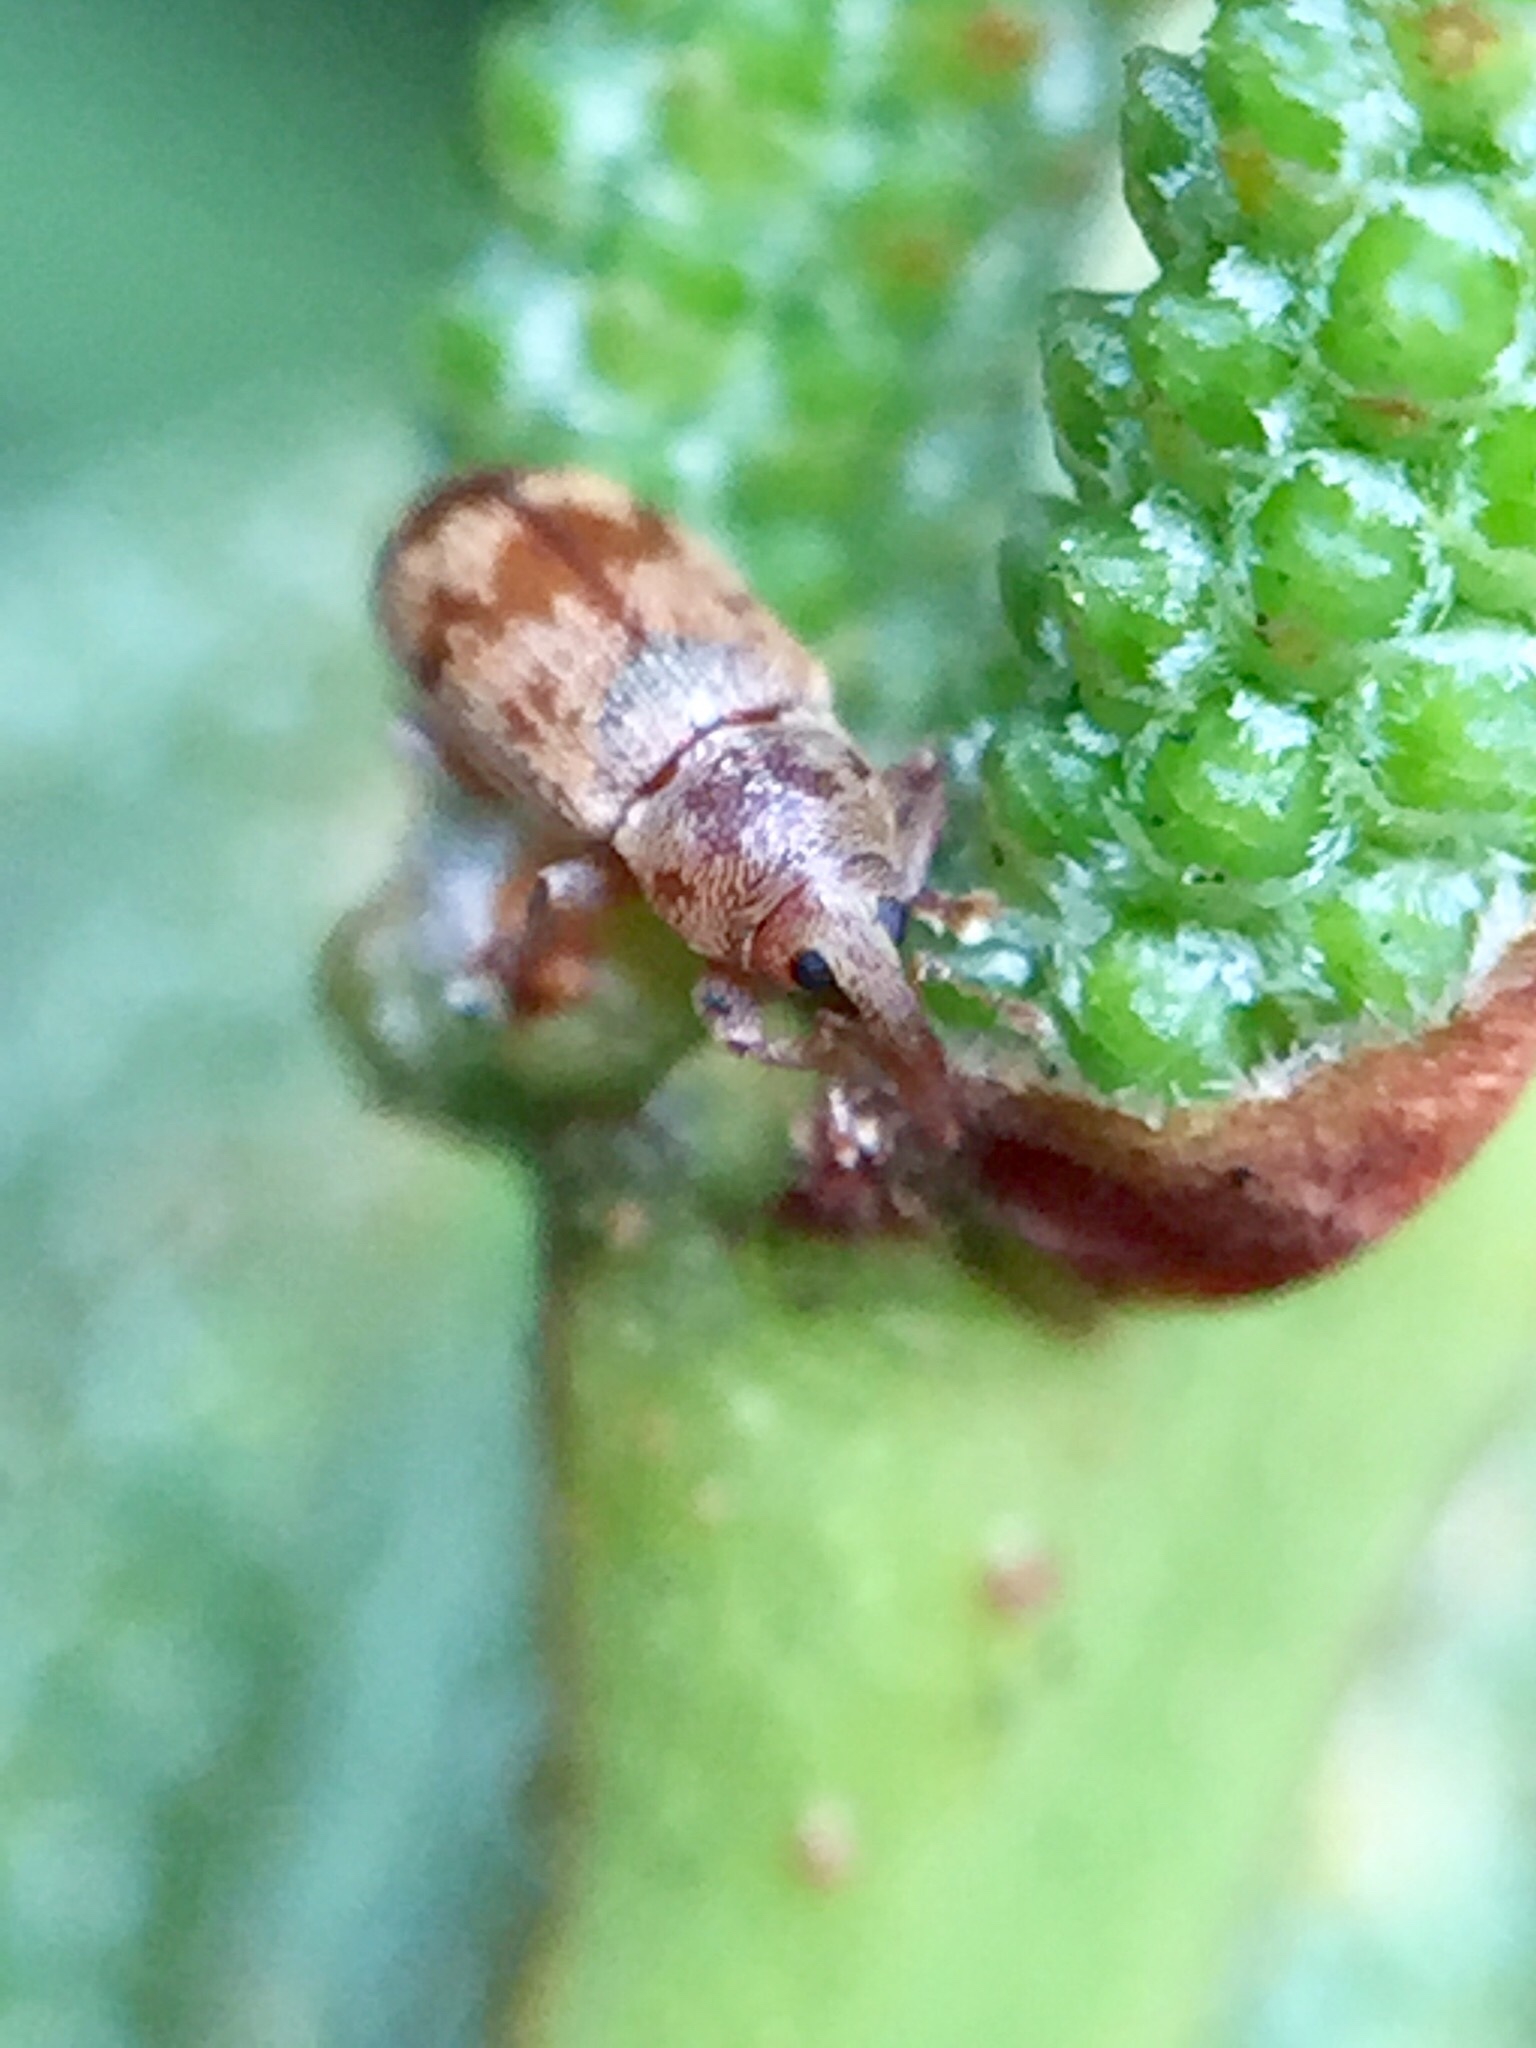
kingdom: Animalia
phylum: Arthropoda
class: Insecta
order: Coleoptera
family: Curculionidae
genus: Epamoebus
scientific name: Epamoebus ziczac
